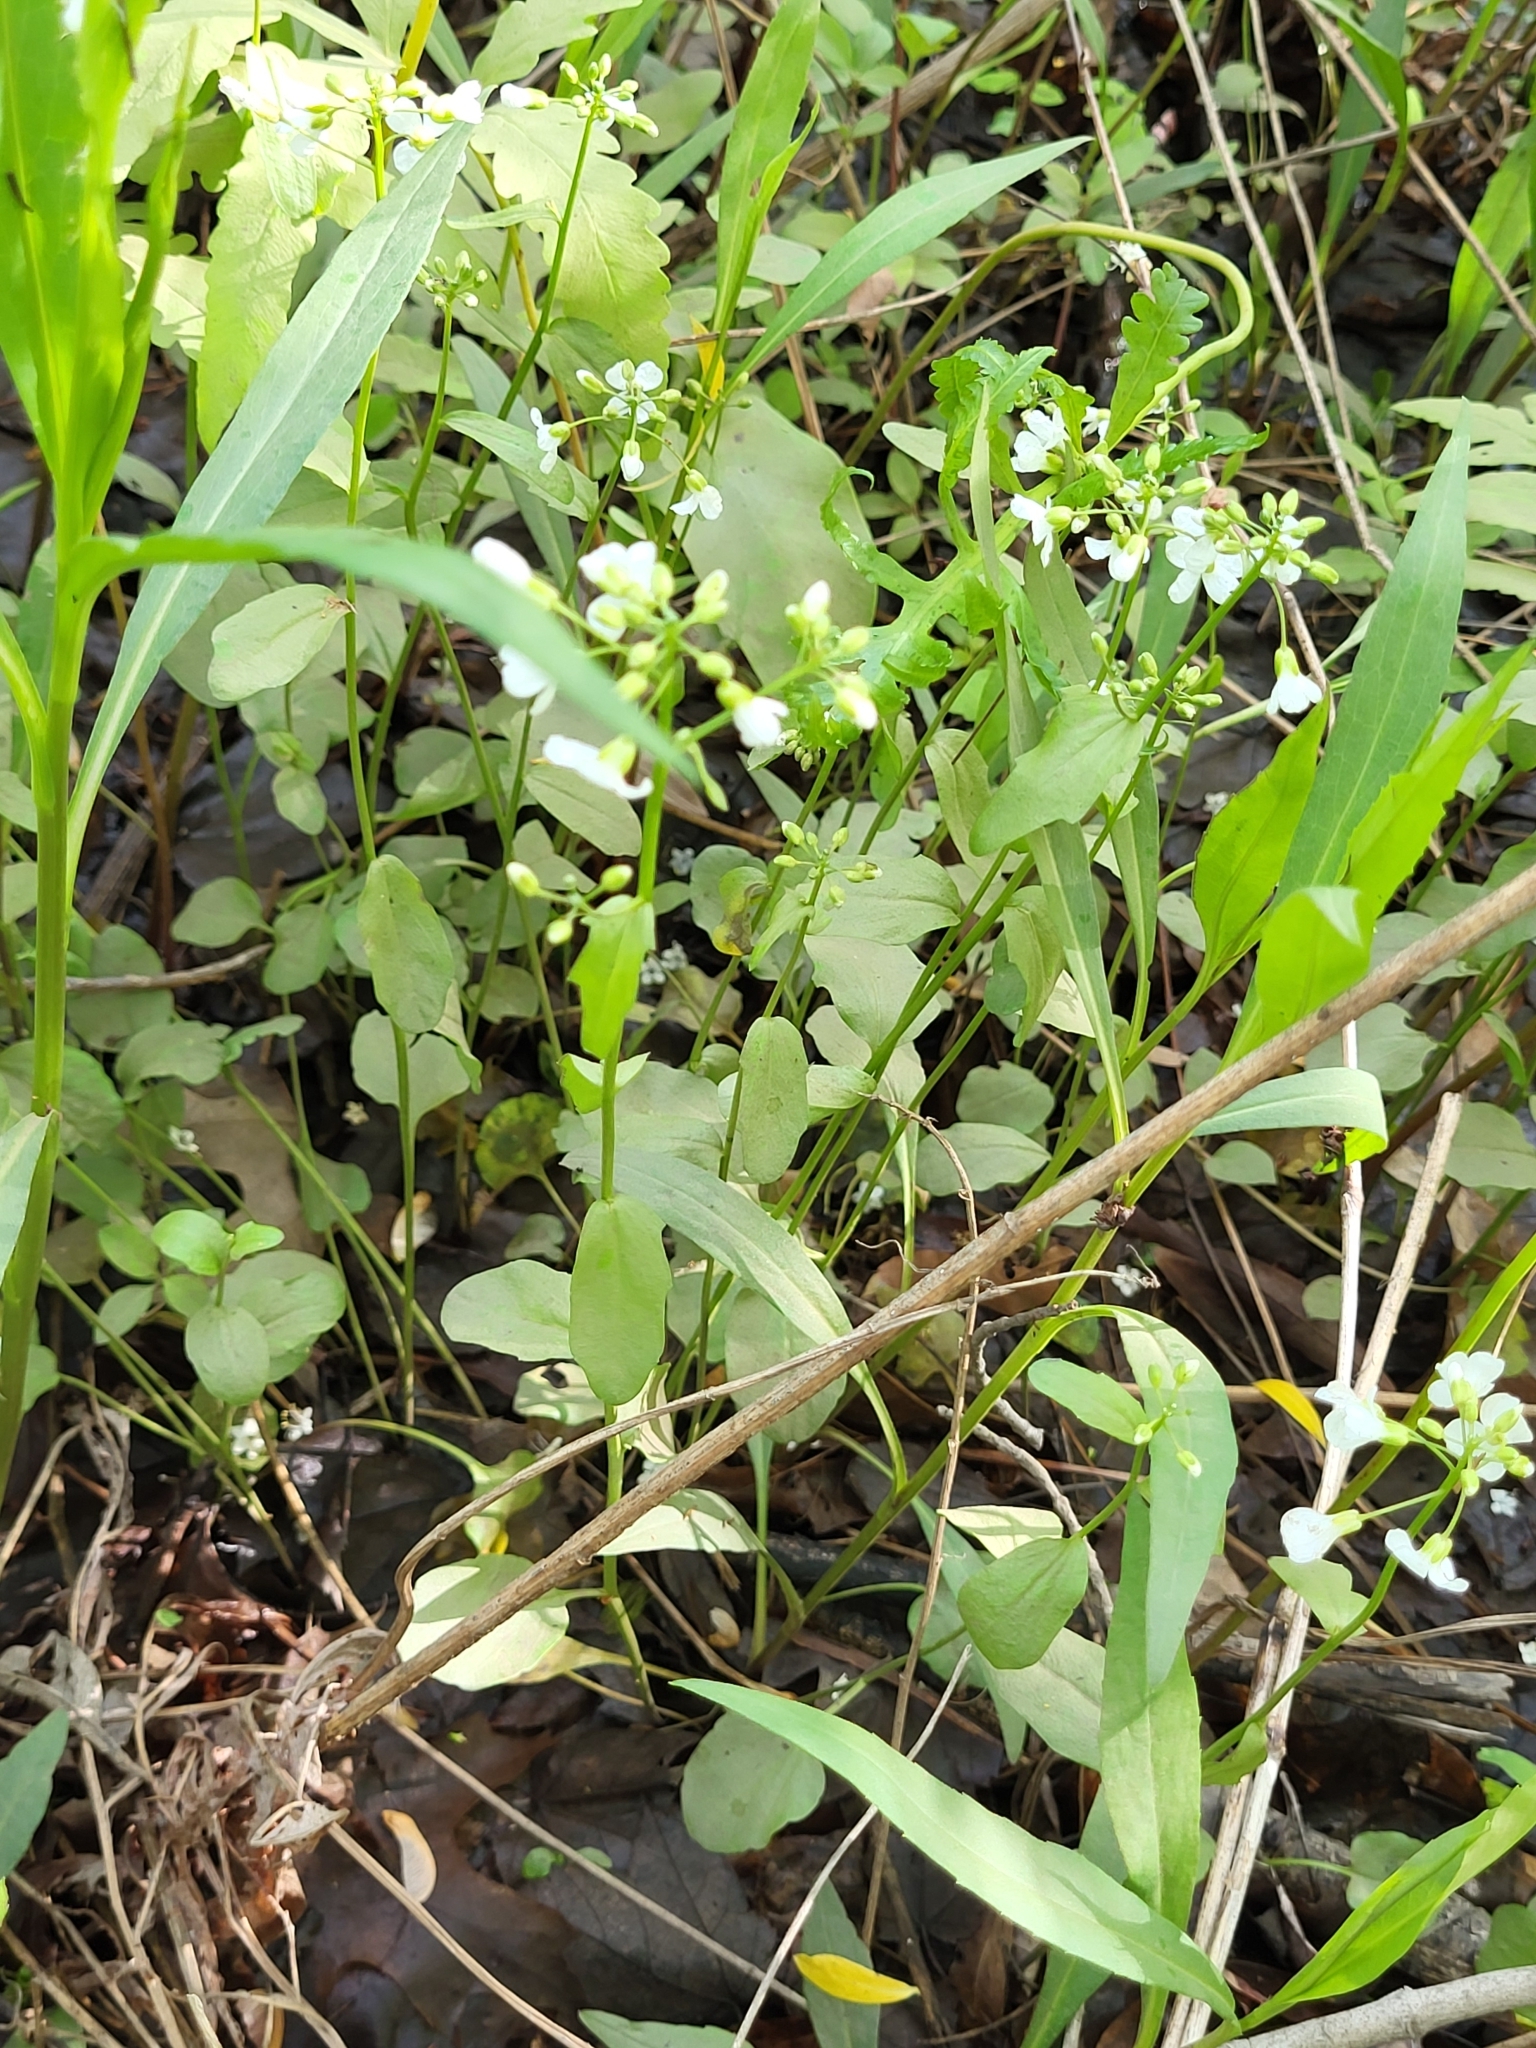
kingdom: Plantae
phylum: Tracheophyta
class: Magnoliopsida
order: Brassicales
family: Brassicaceae
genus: Cardamine
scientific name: Cardamine bulbosa
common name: Spring cress
